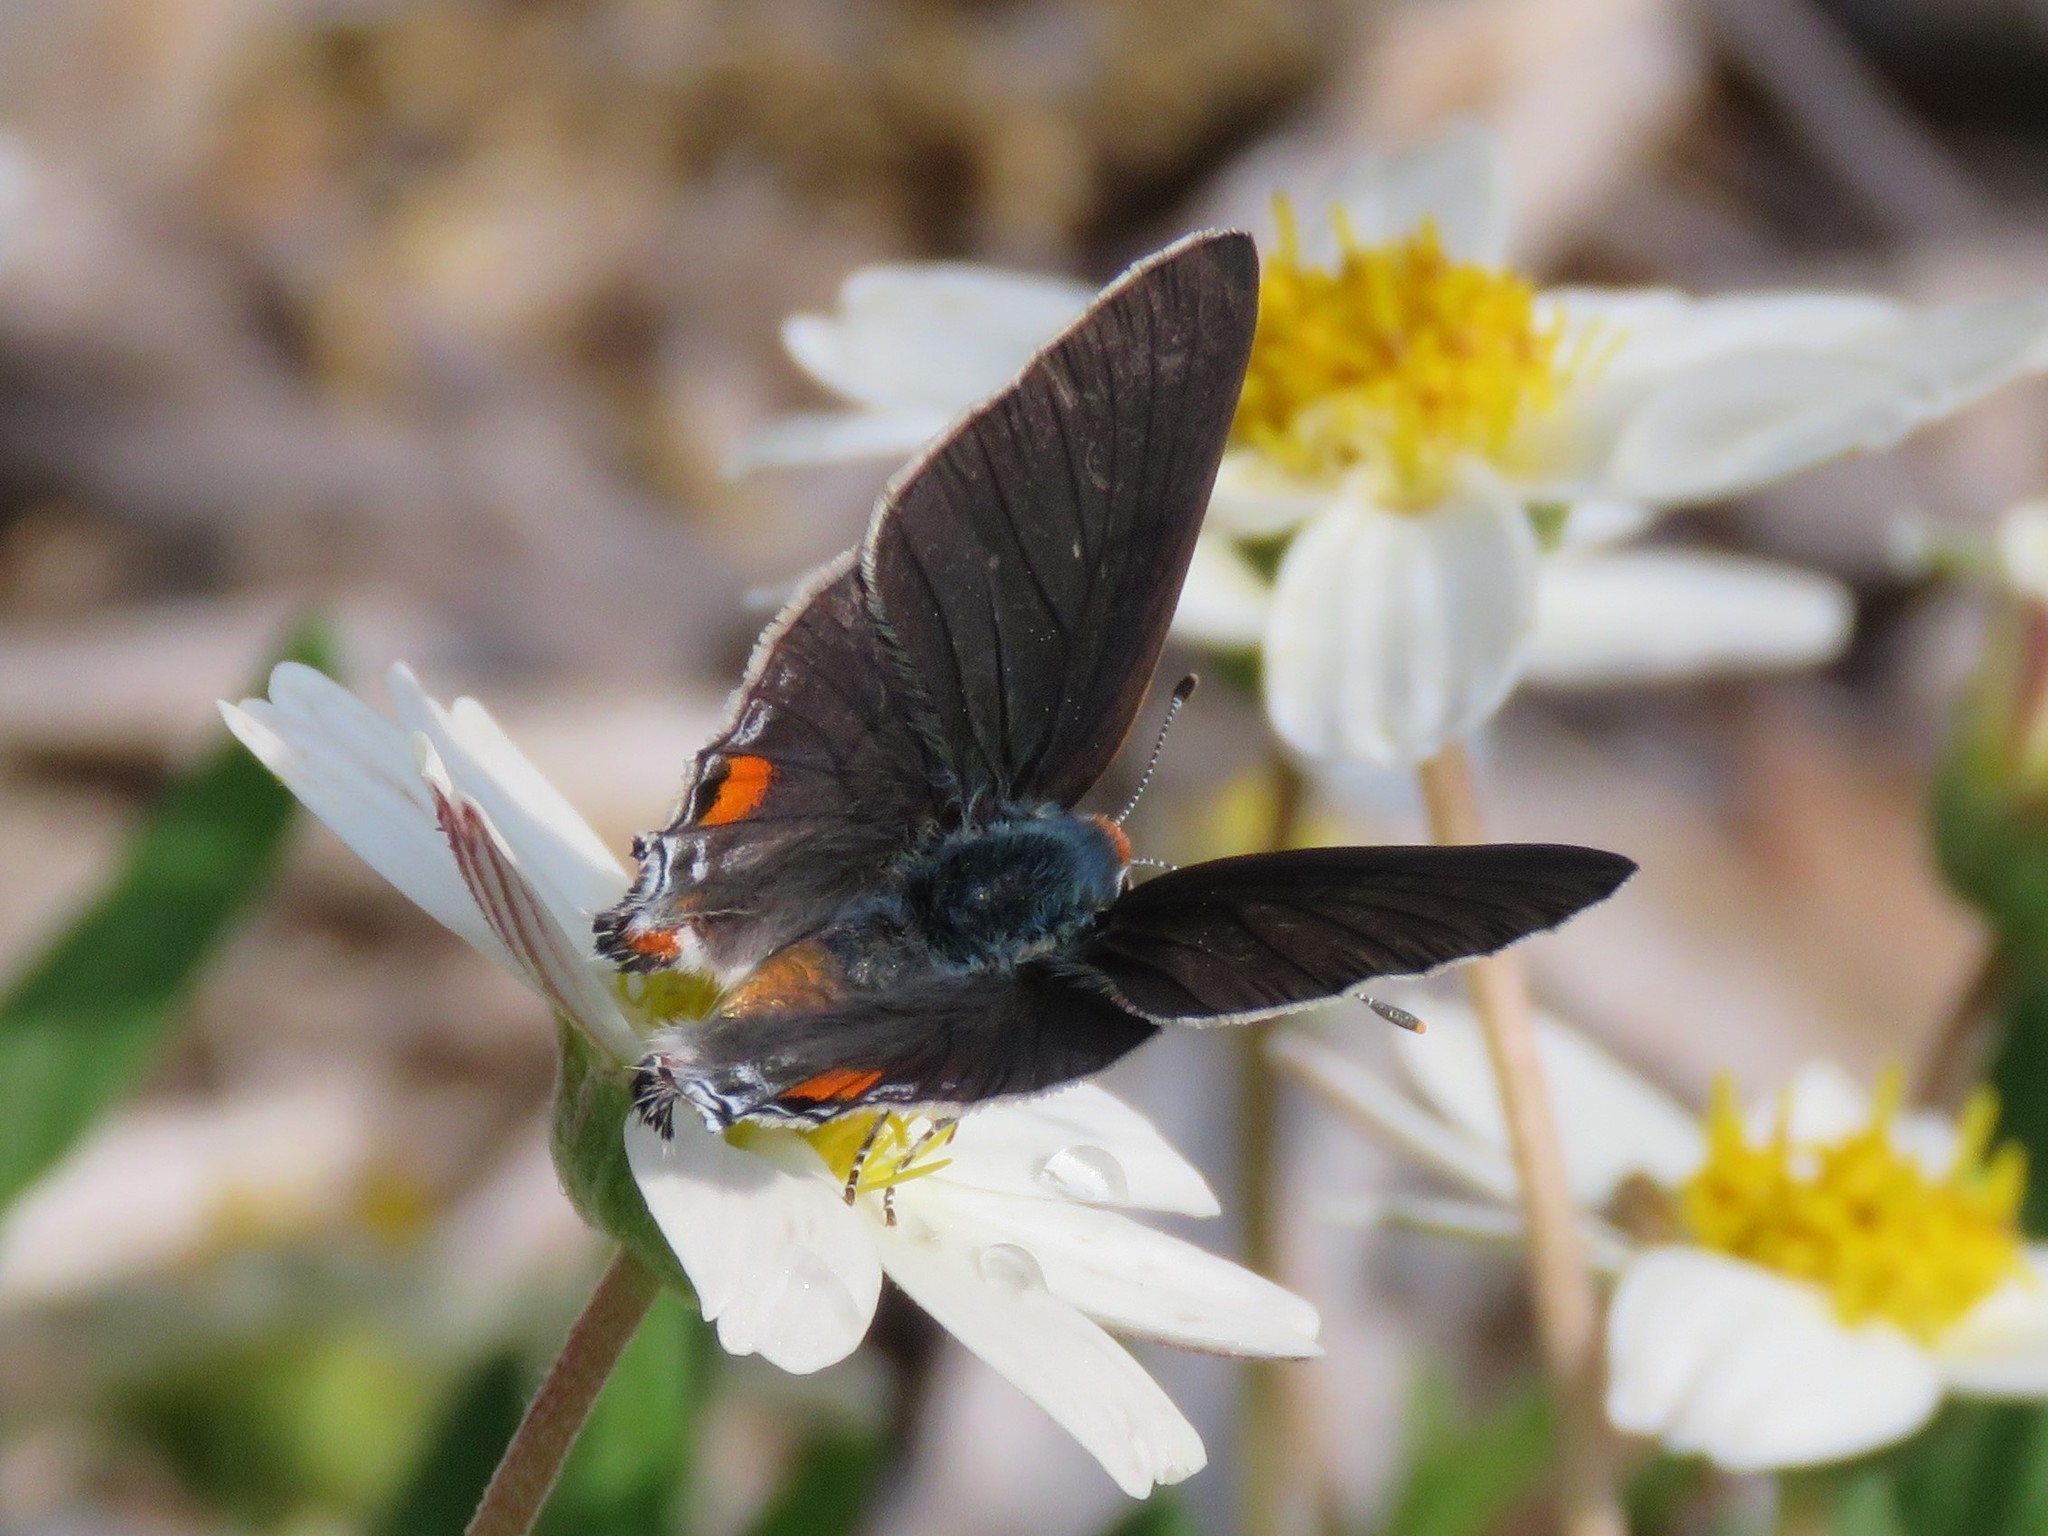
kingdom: Animalia
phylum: Arthropoda
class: Insecta
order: Lepidoptera
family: Lycaenidae
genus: Strymon
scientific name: Strymon melinus
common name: Gray hairstreak
